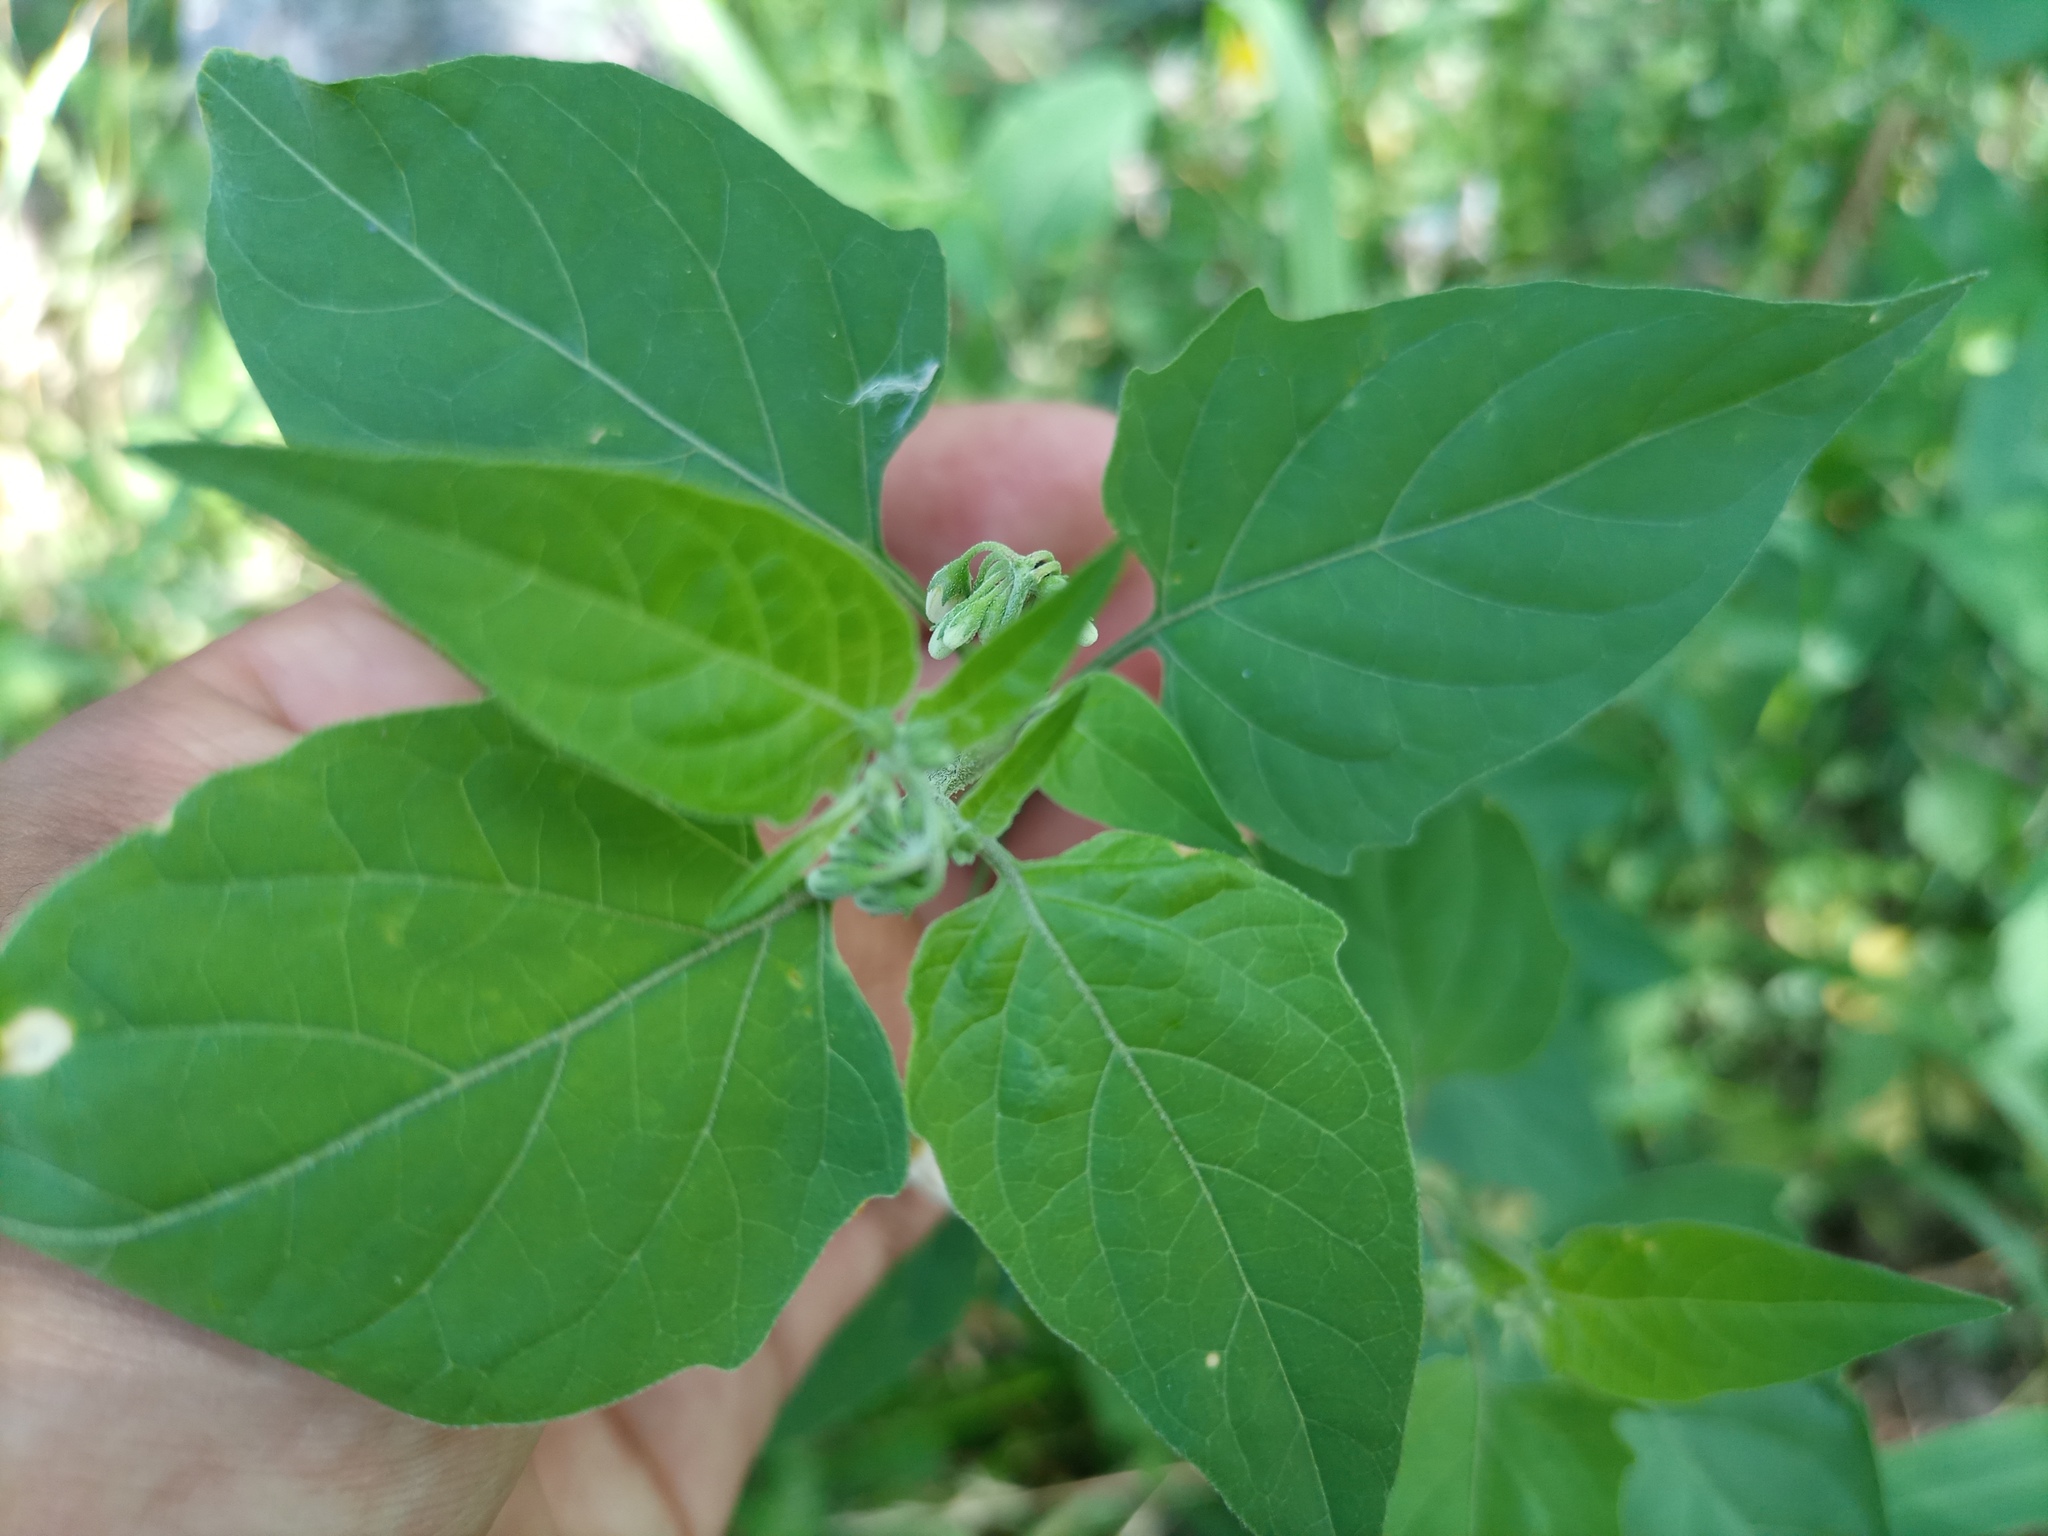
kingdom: Plantae
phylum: Tracheophyta
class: Magnoliopsida
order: Solanales
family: Solanaceae
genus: Solanum
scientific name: Solanum chenopodioides
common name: Tall nightshade
